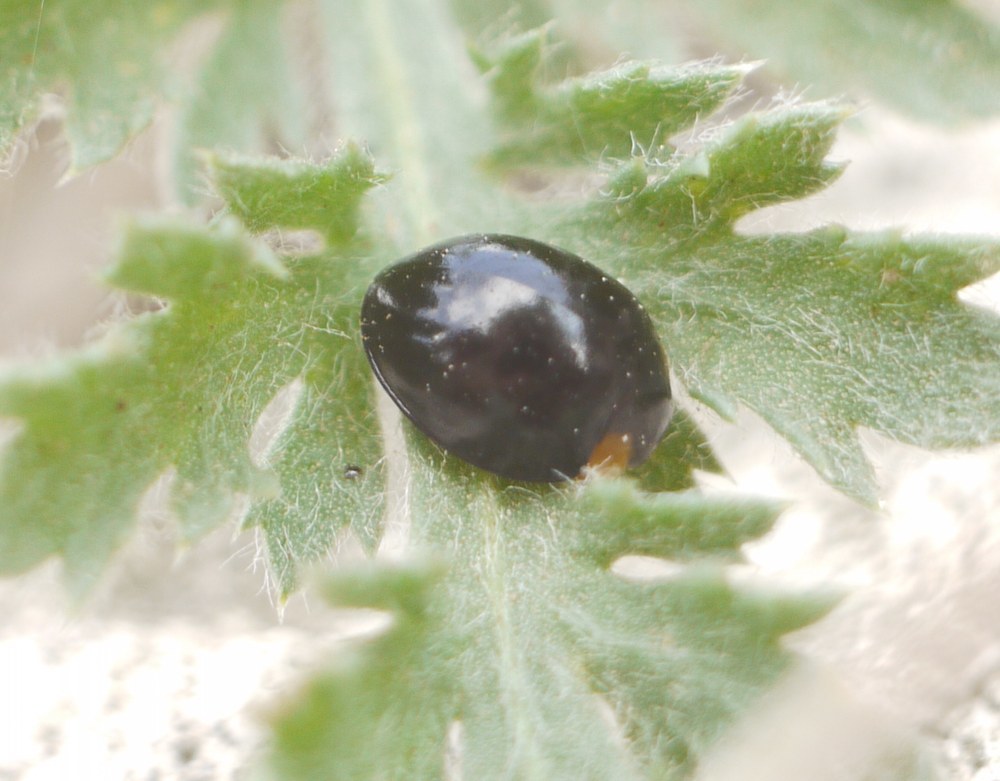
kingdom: Animalia
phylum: Arthropoda
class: Insecta
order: Coleoptera
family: Coccinellidae
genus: Parexochomus
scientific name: Parexochomus nigromaculatus
